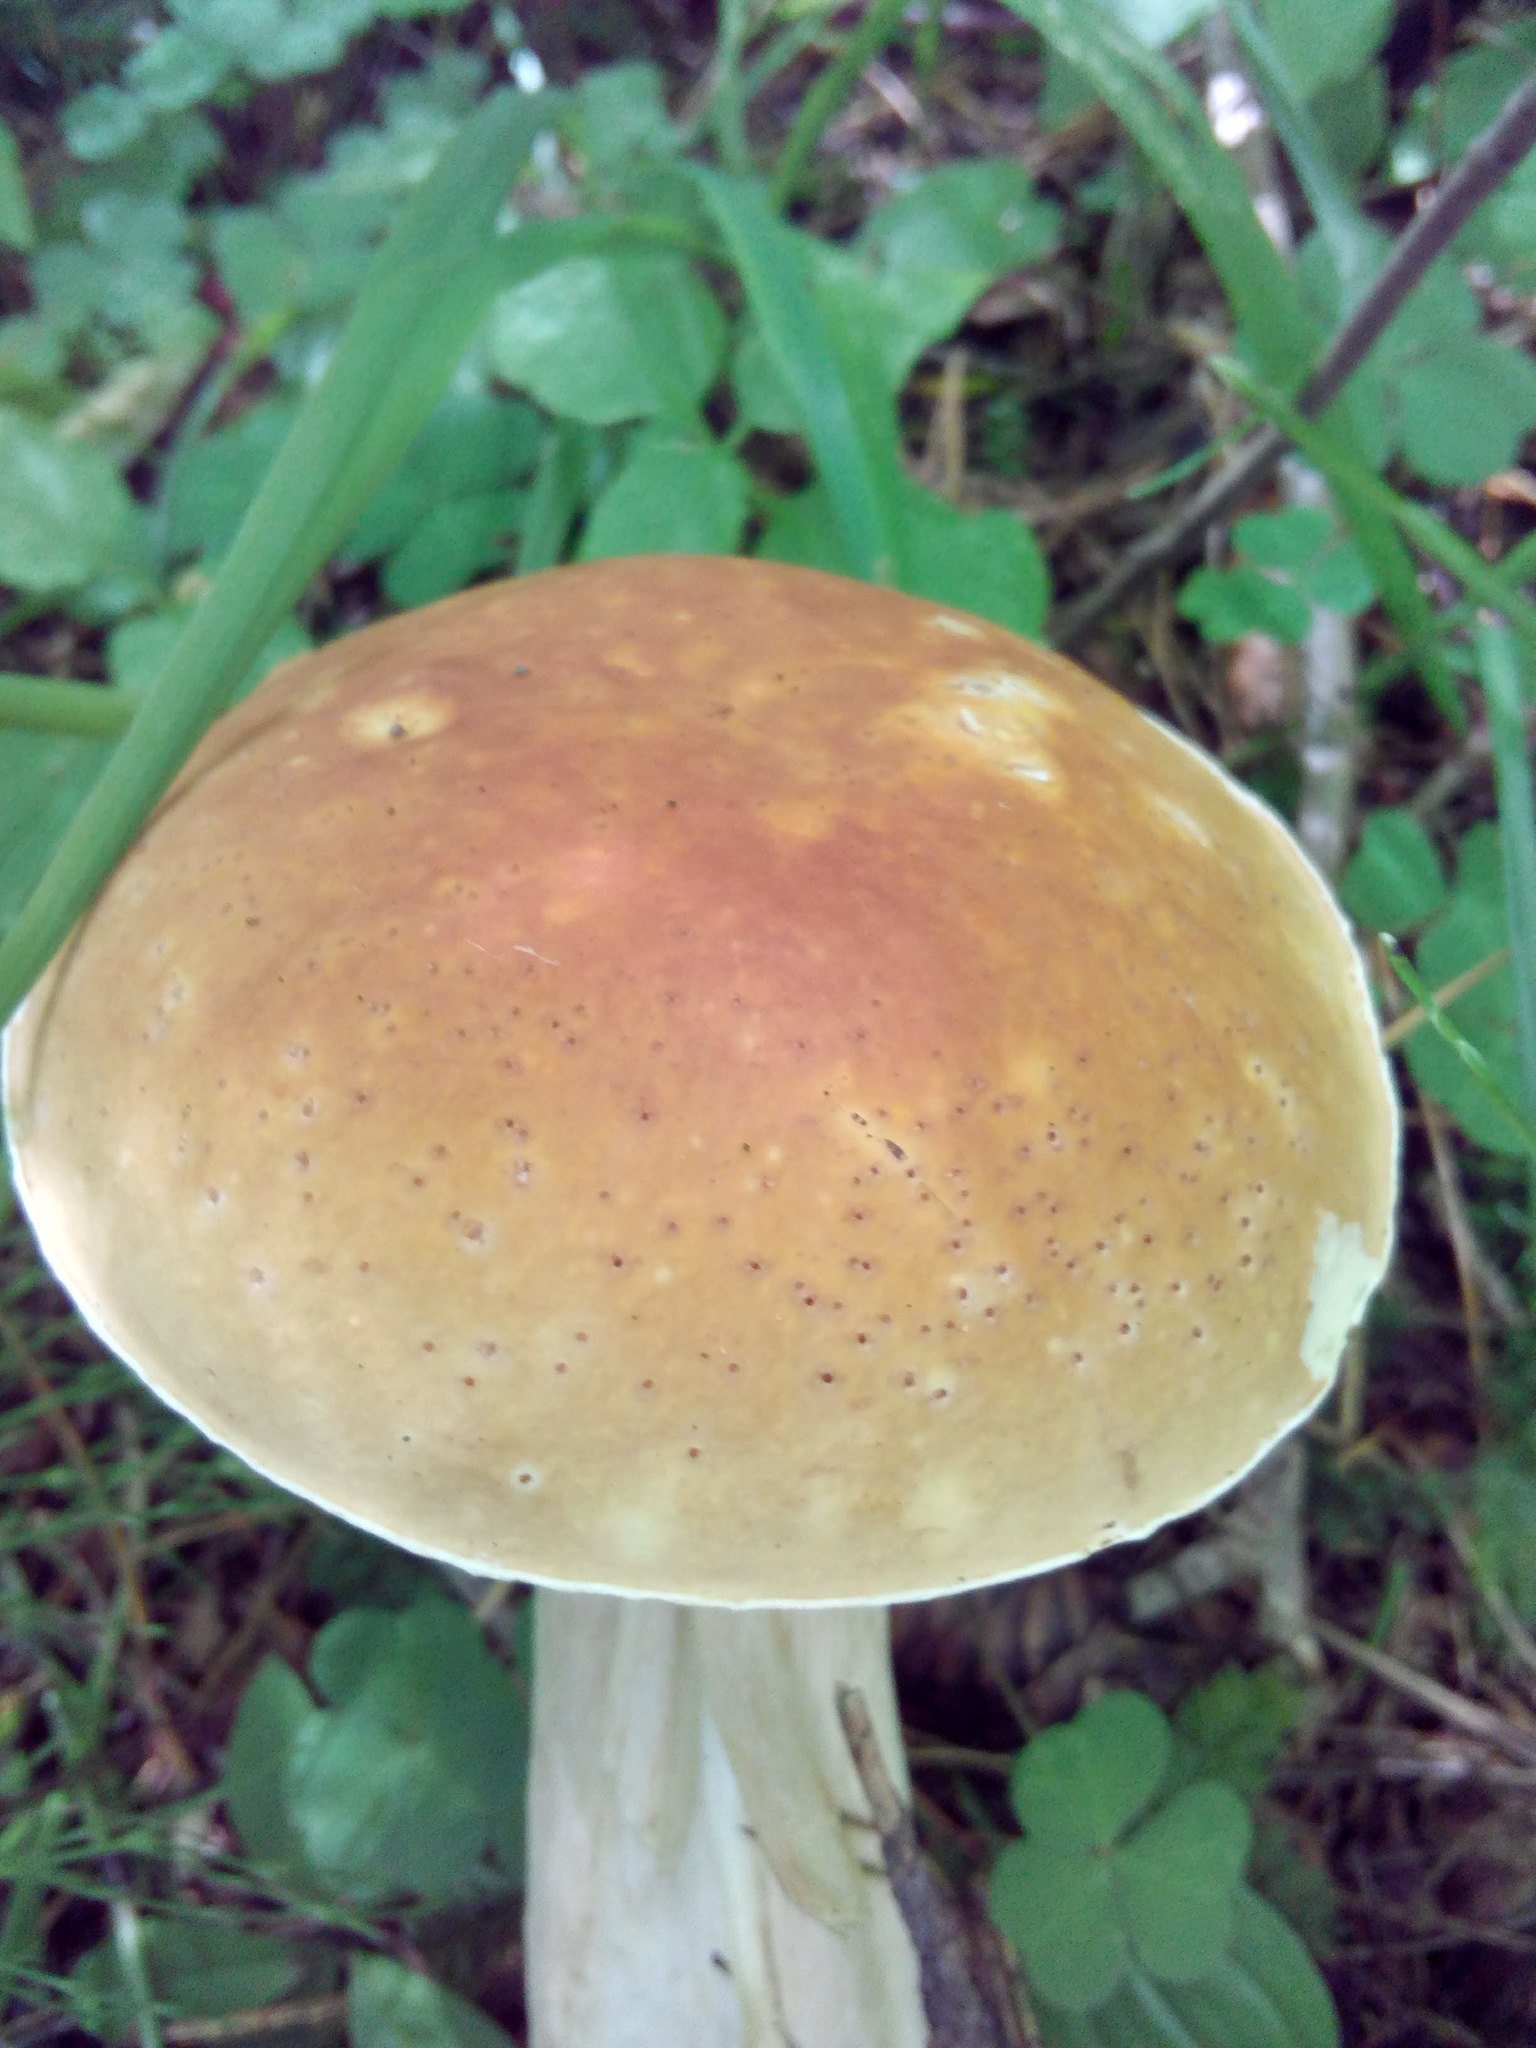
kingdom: Fungi
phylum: Basidiomycota
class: Agaricomycetes
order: Boletales
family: Boletaceae
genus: Boletus
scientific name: Boletus edulis
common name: Cep
